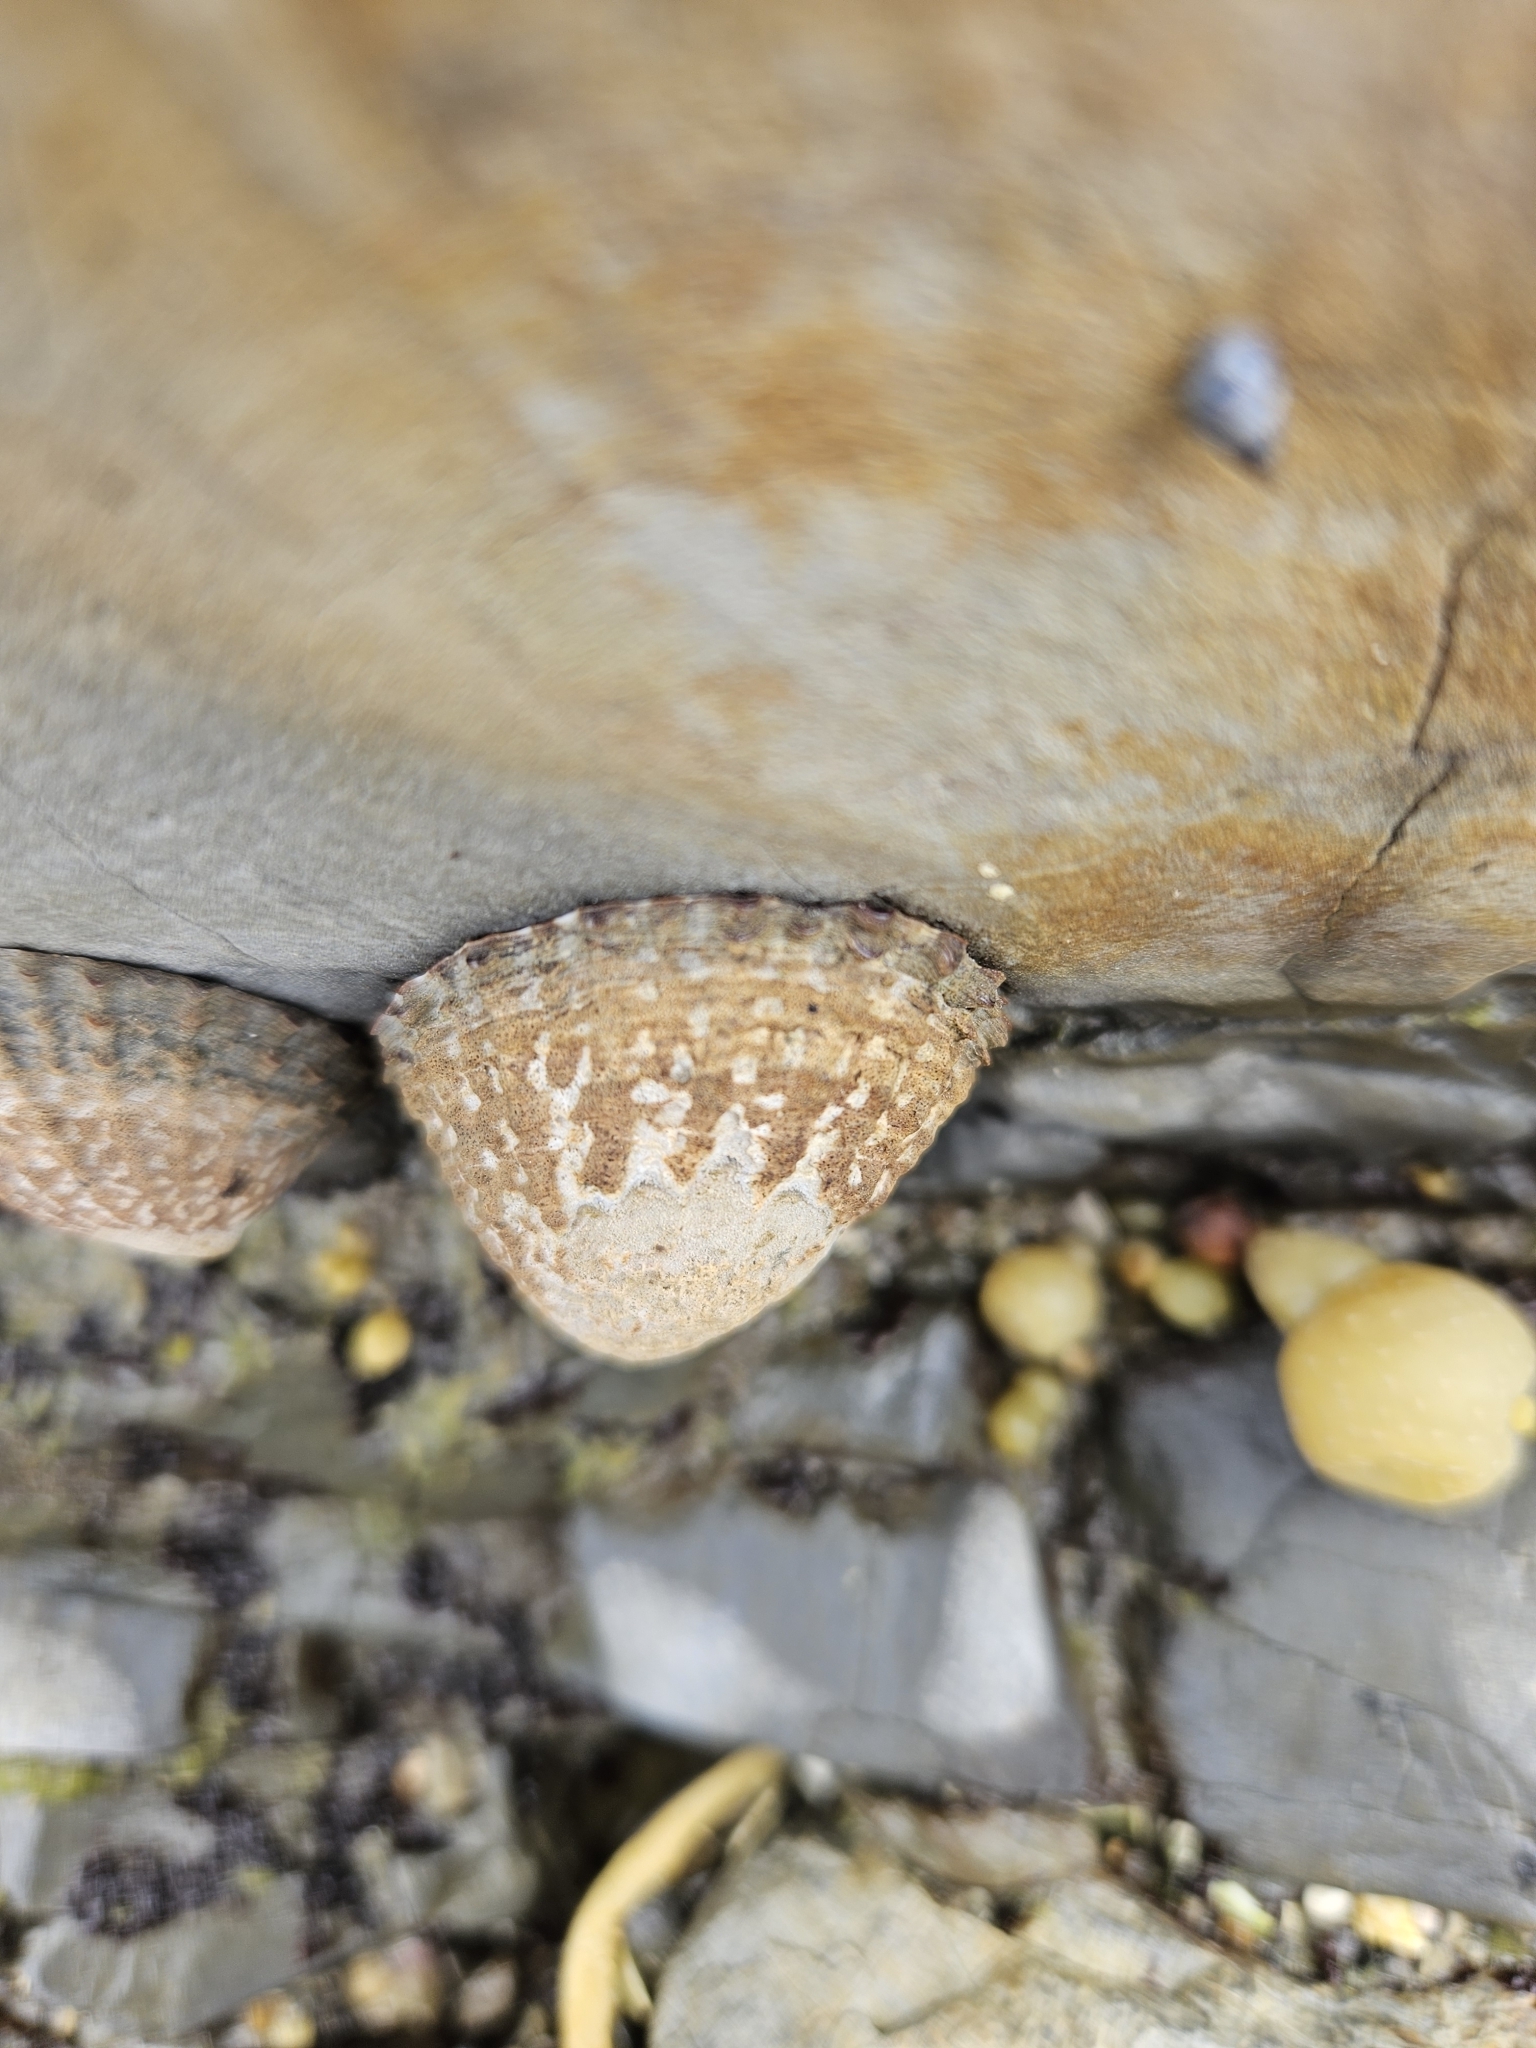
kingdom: Animalia
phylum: Mollusca
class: Gastropoda
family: Nacellidae
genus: Cellana
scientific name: Cellana denticulata
